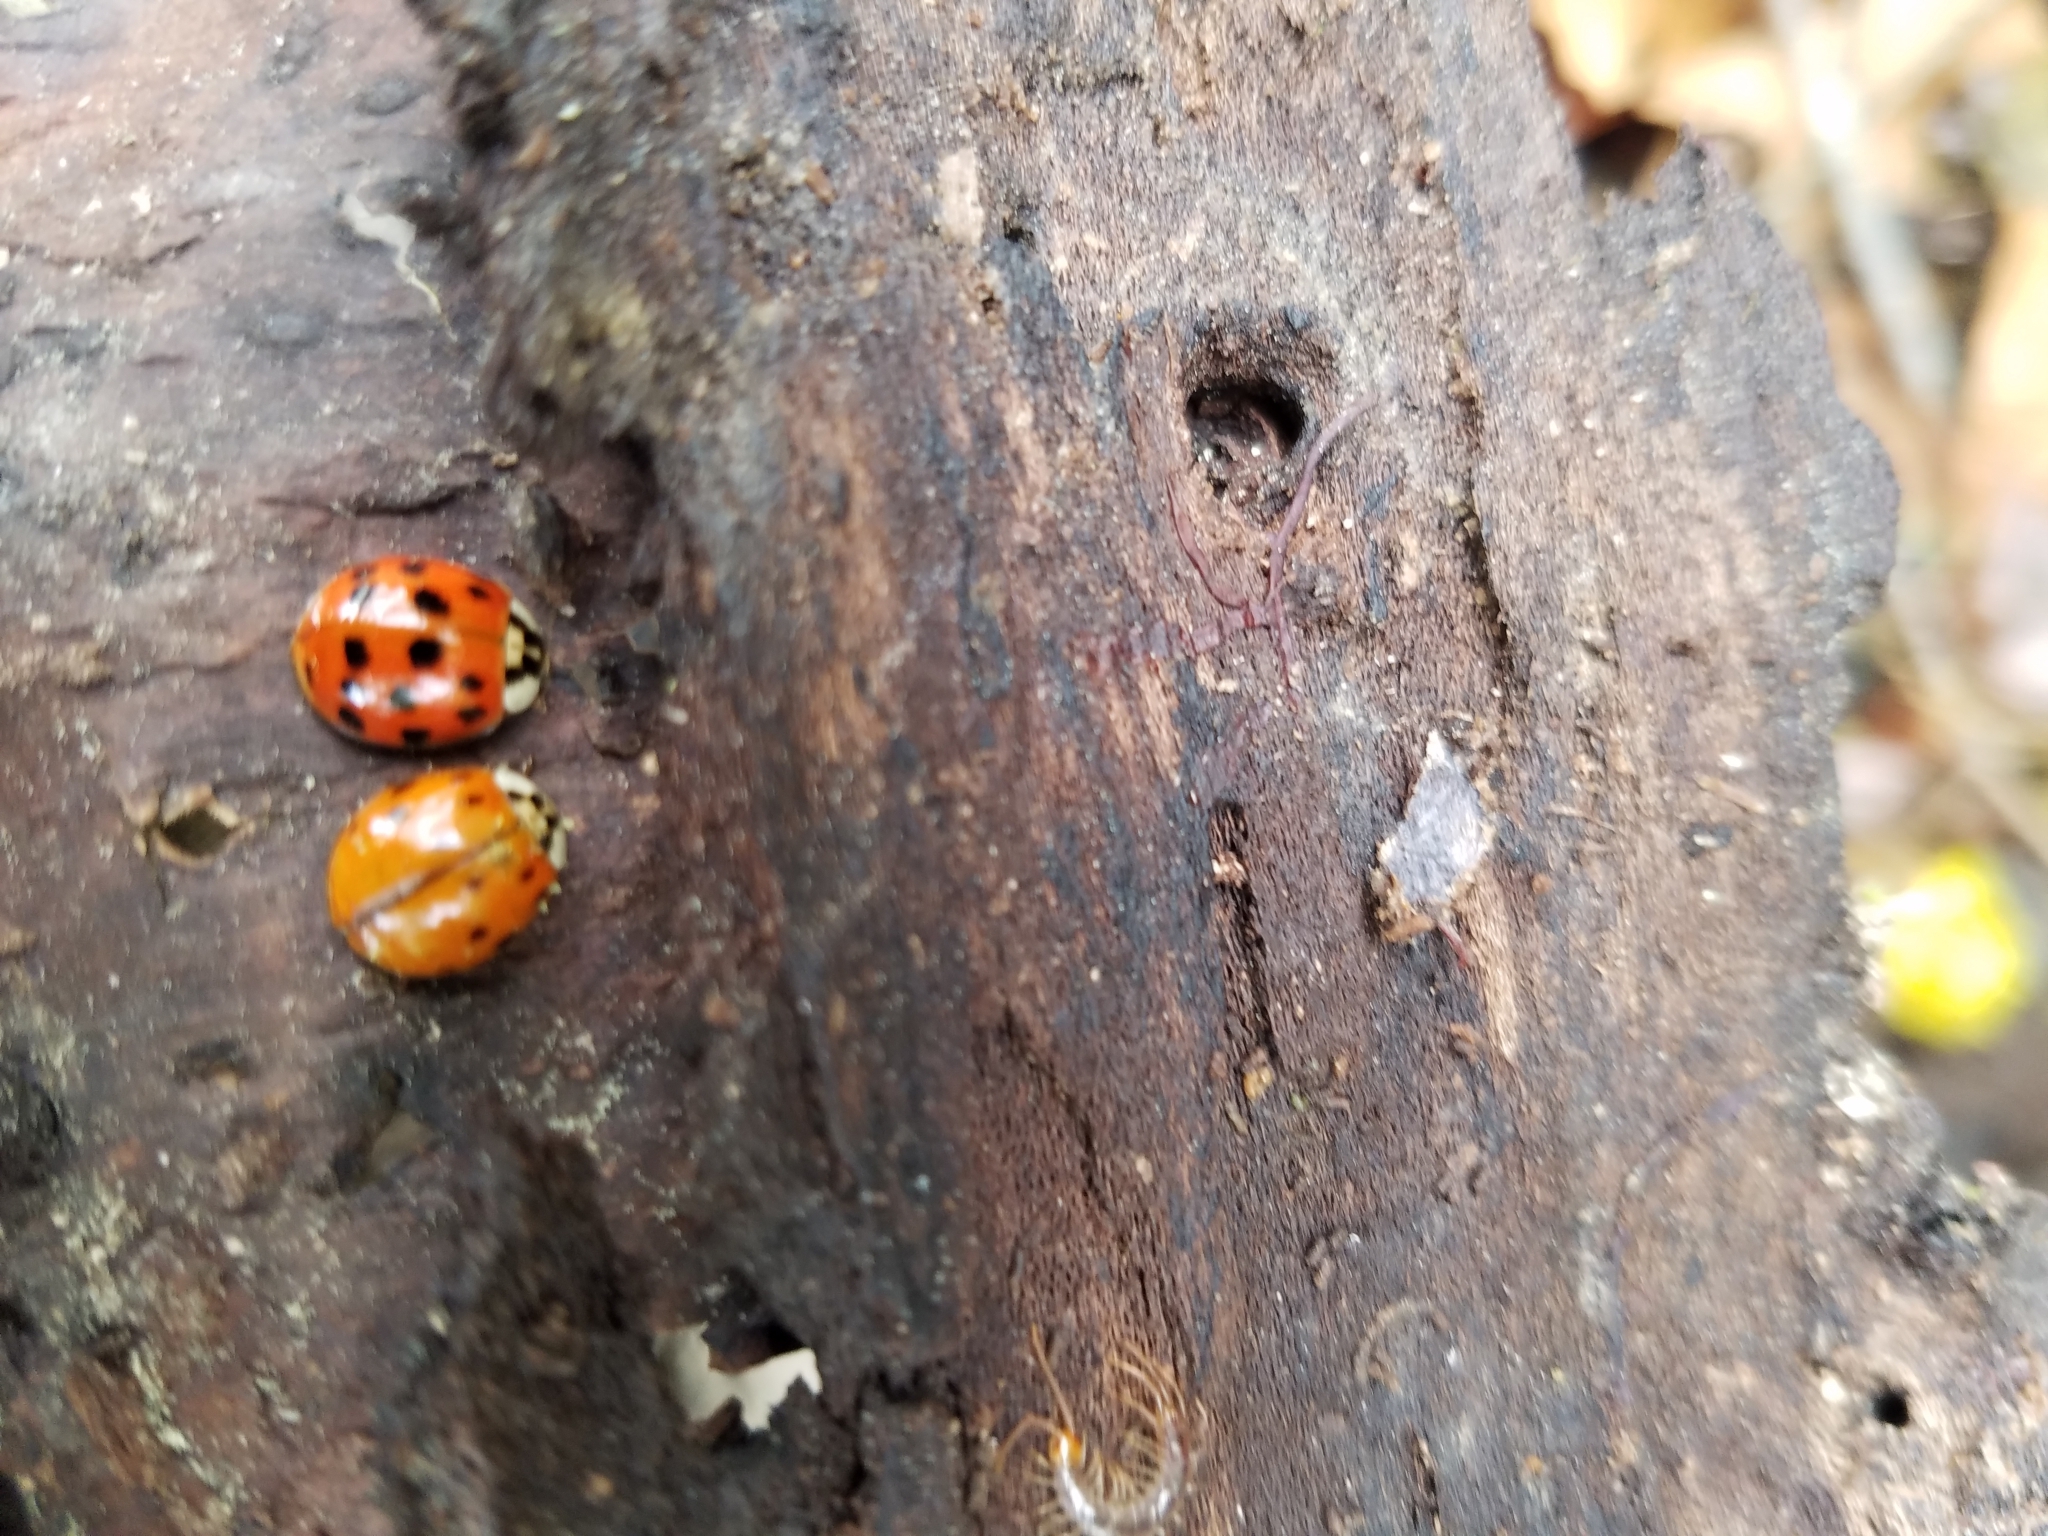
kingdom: Animalia
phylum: Arthropoda
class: Insecta
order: Coleoptera
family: Coccinellidae
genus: Harmonia
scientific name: Harmonia axyridis
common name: Harlequin ladybird
